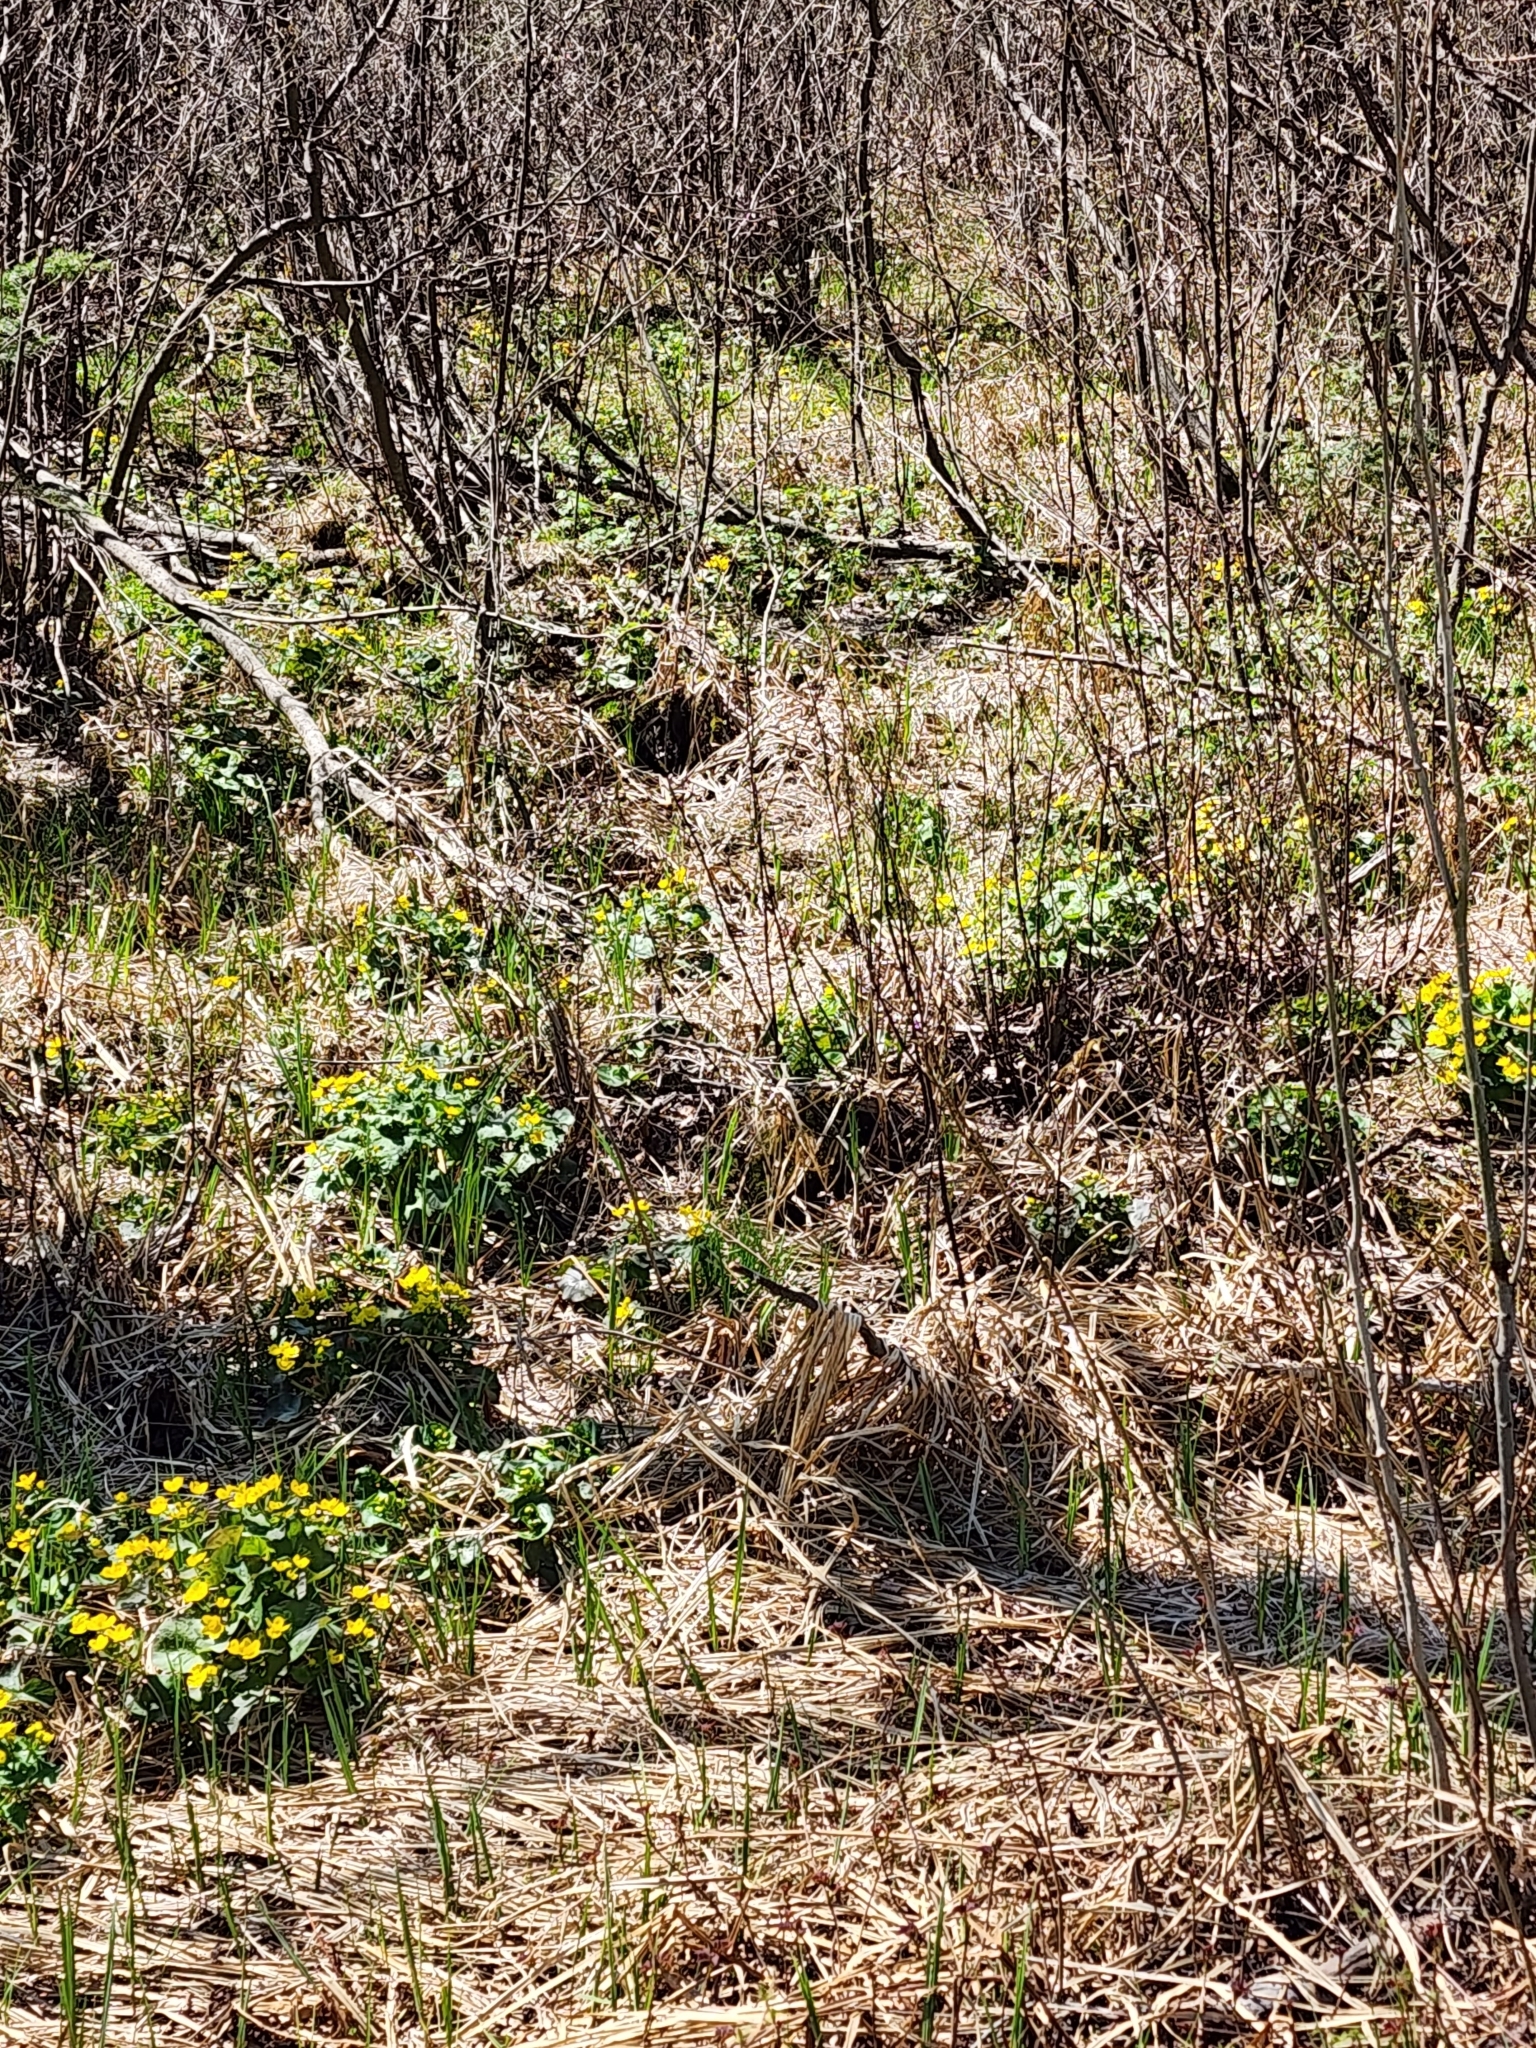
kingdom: Plantae
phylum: Tracheophyta
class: Magnoliopsida
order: Ranunculales
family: Ranunculaceae
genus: Caltha
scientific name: Caltha palustris
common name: Marsh marigold
